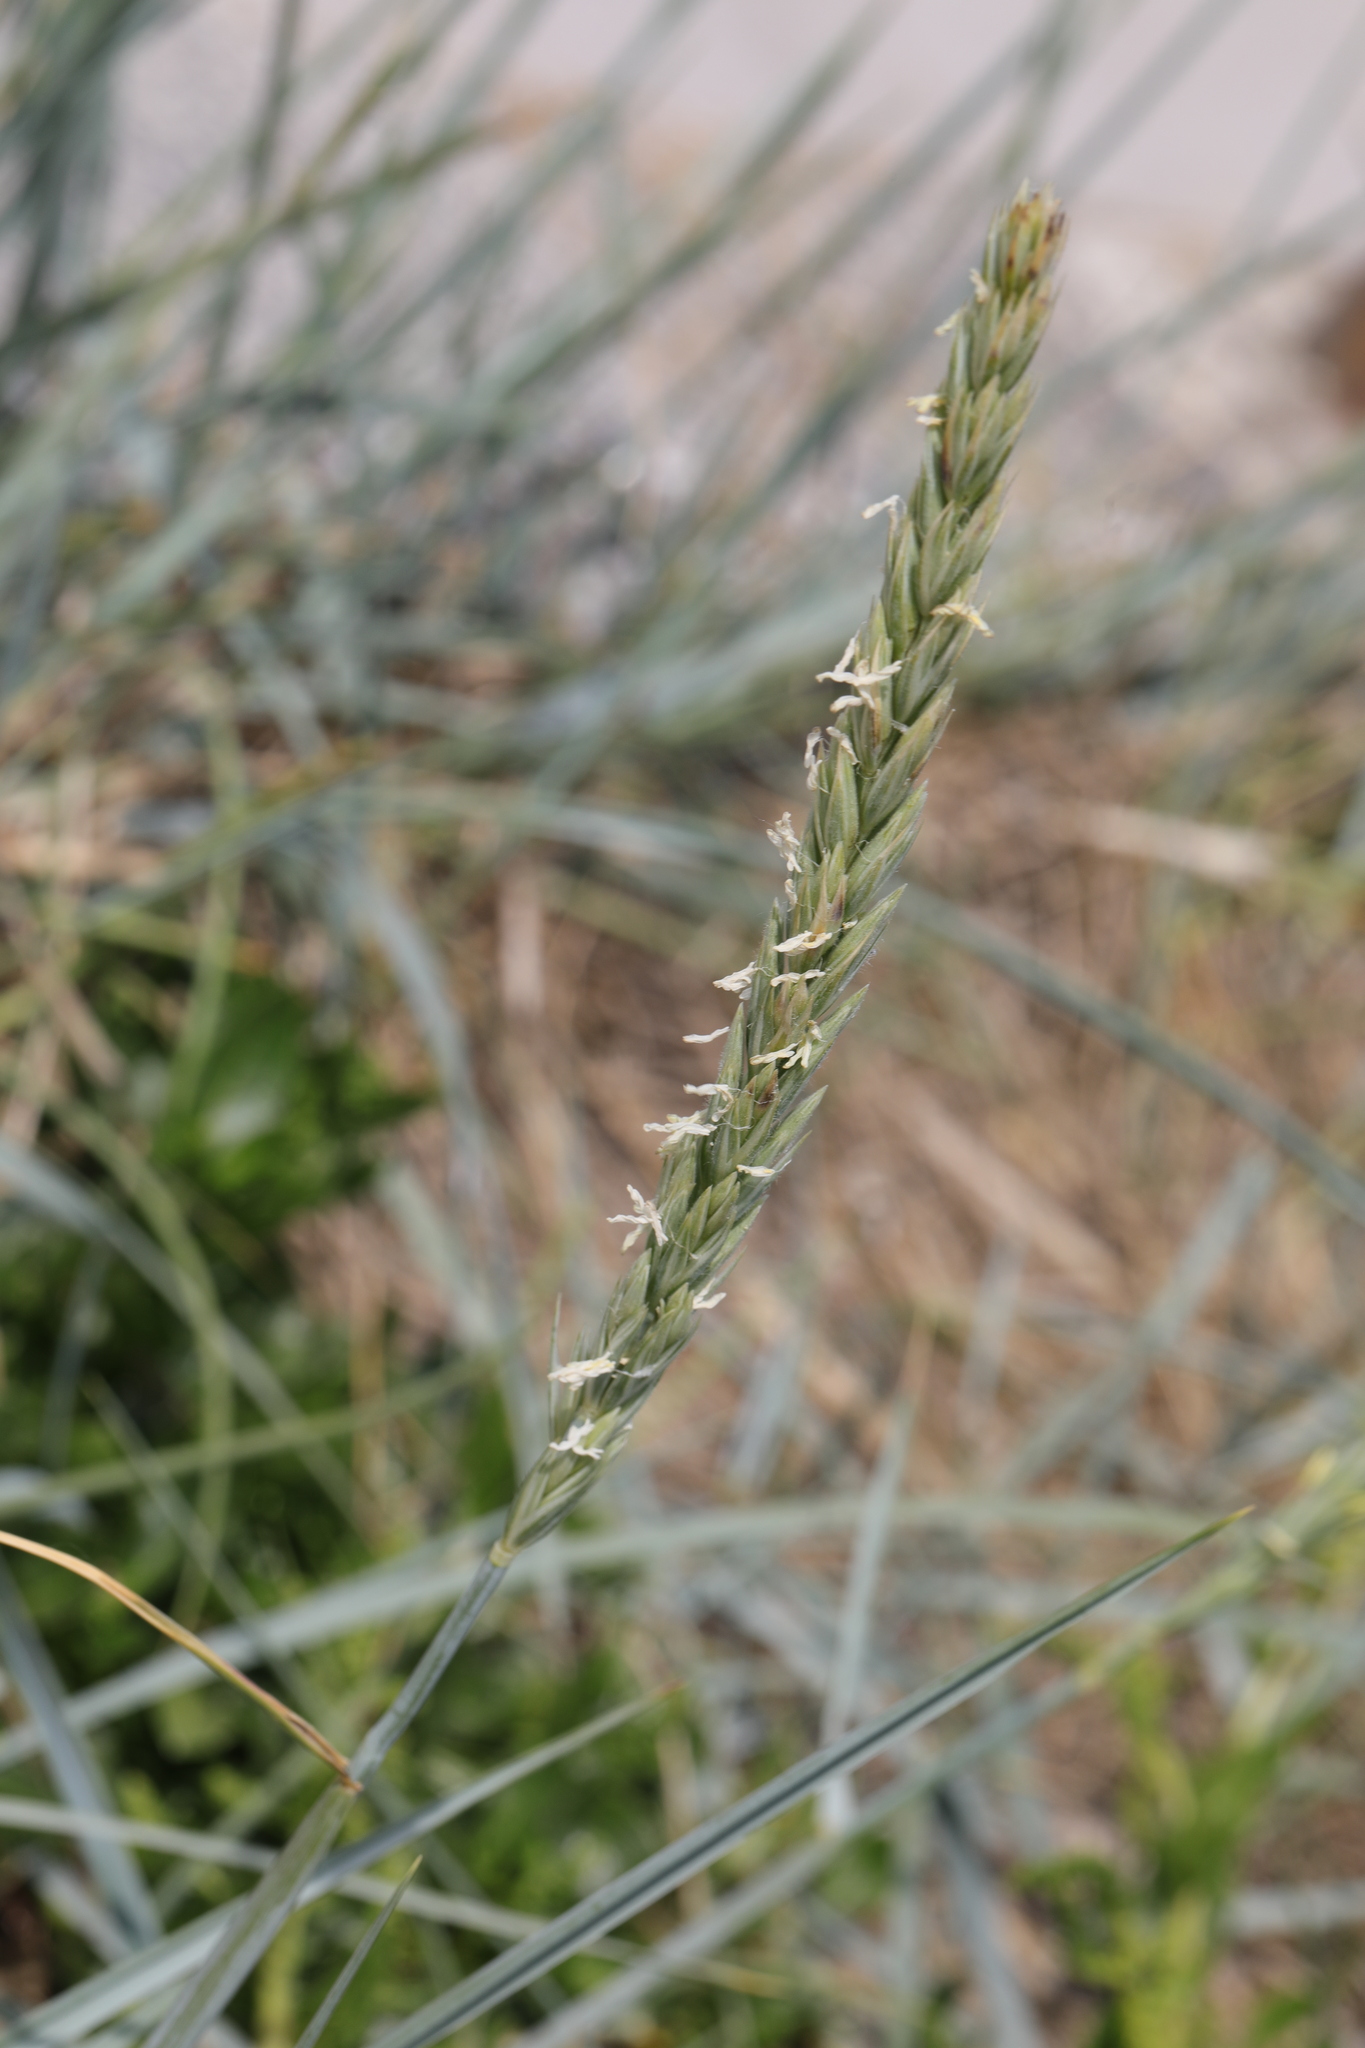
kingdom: Plantae
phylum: Tracheophyta
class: Liliopsida
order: Poales
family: Poaceae
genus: Leymus
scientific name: Leymus arenarius
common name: Lyme-grass
